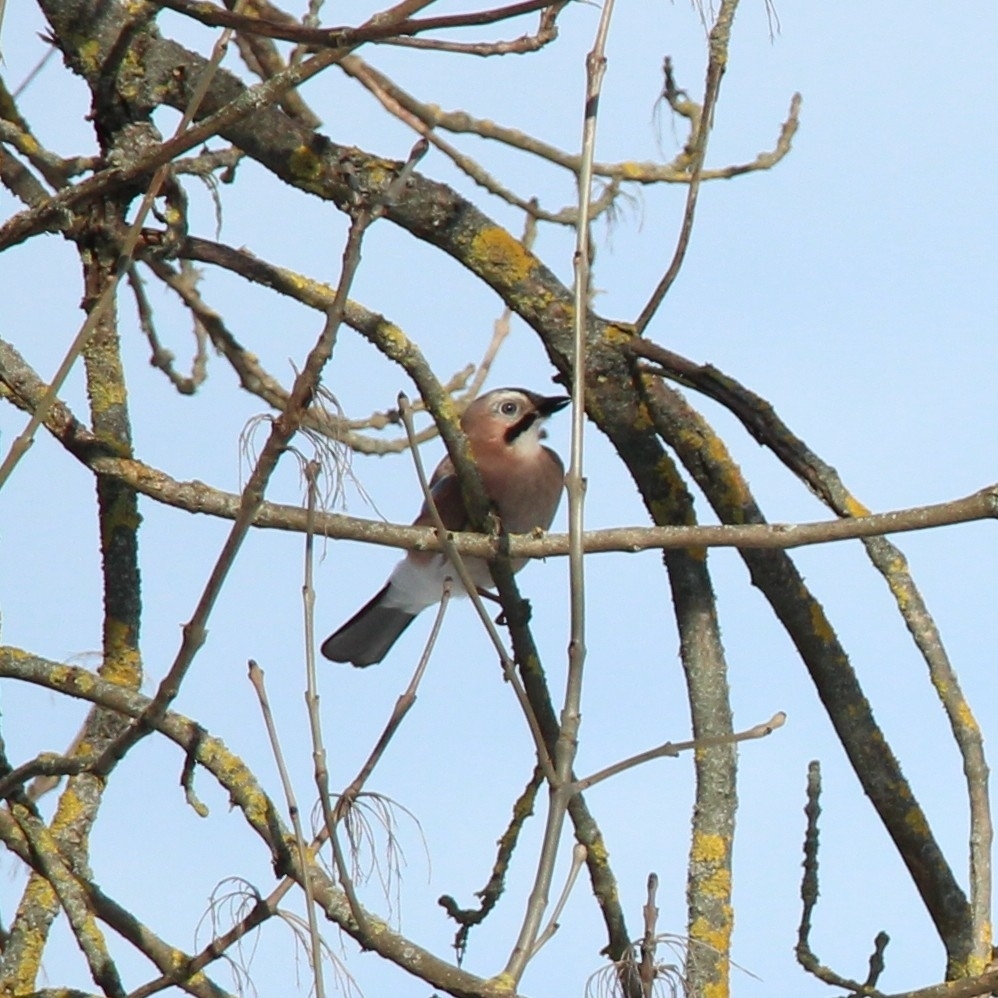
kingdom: Animalia
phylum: Chordata
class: Aves
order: Passeriformes
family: Corvidae
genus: Garrulus
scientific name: Garrulus glandarius
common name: Eurasian jay
